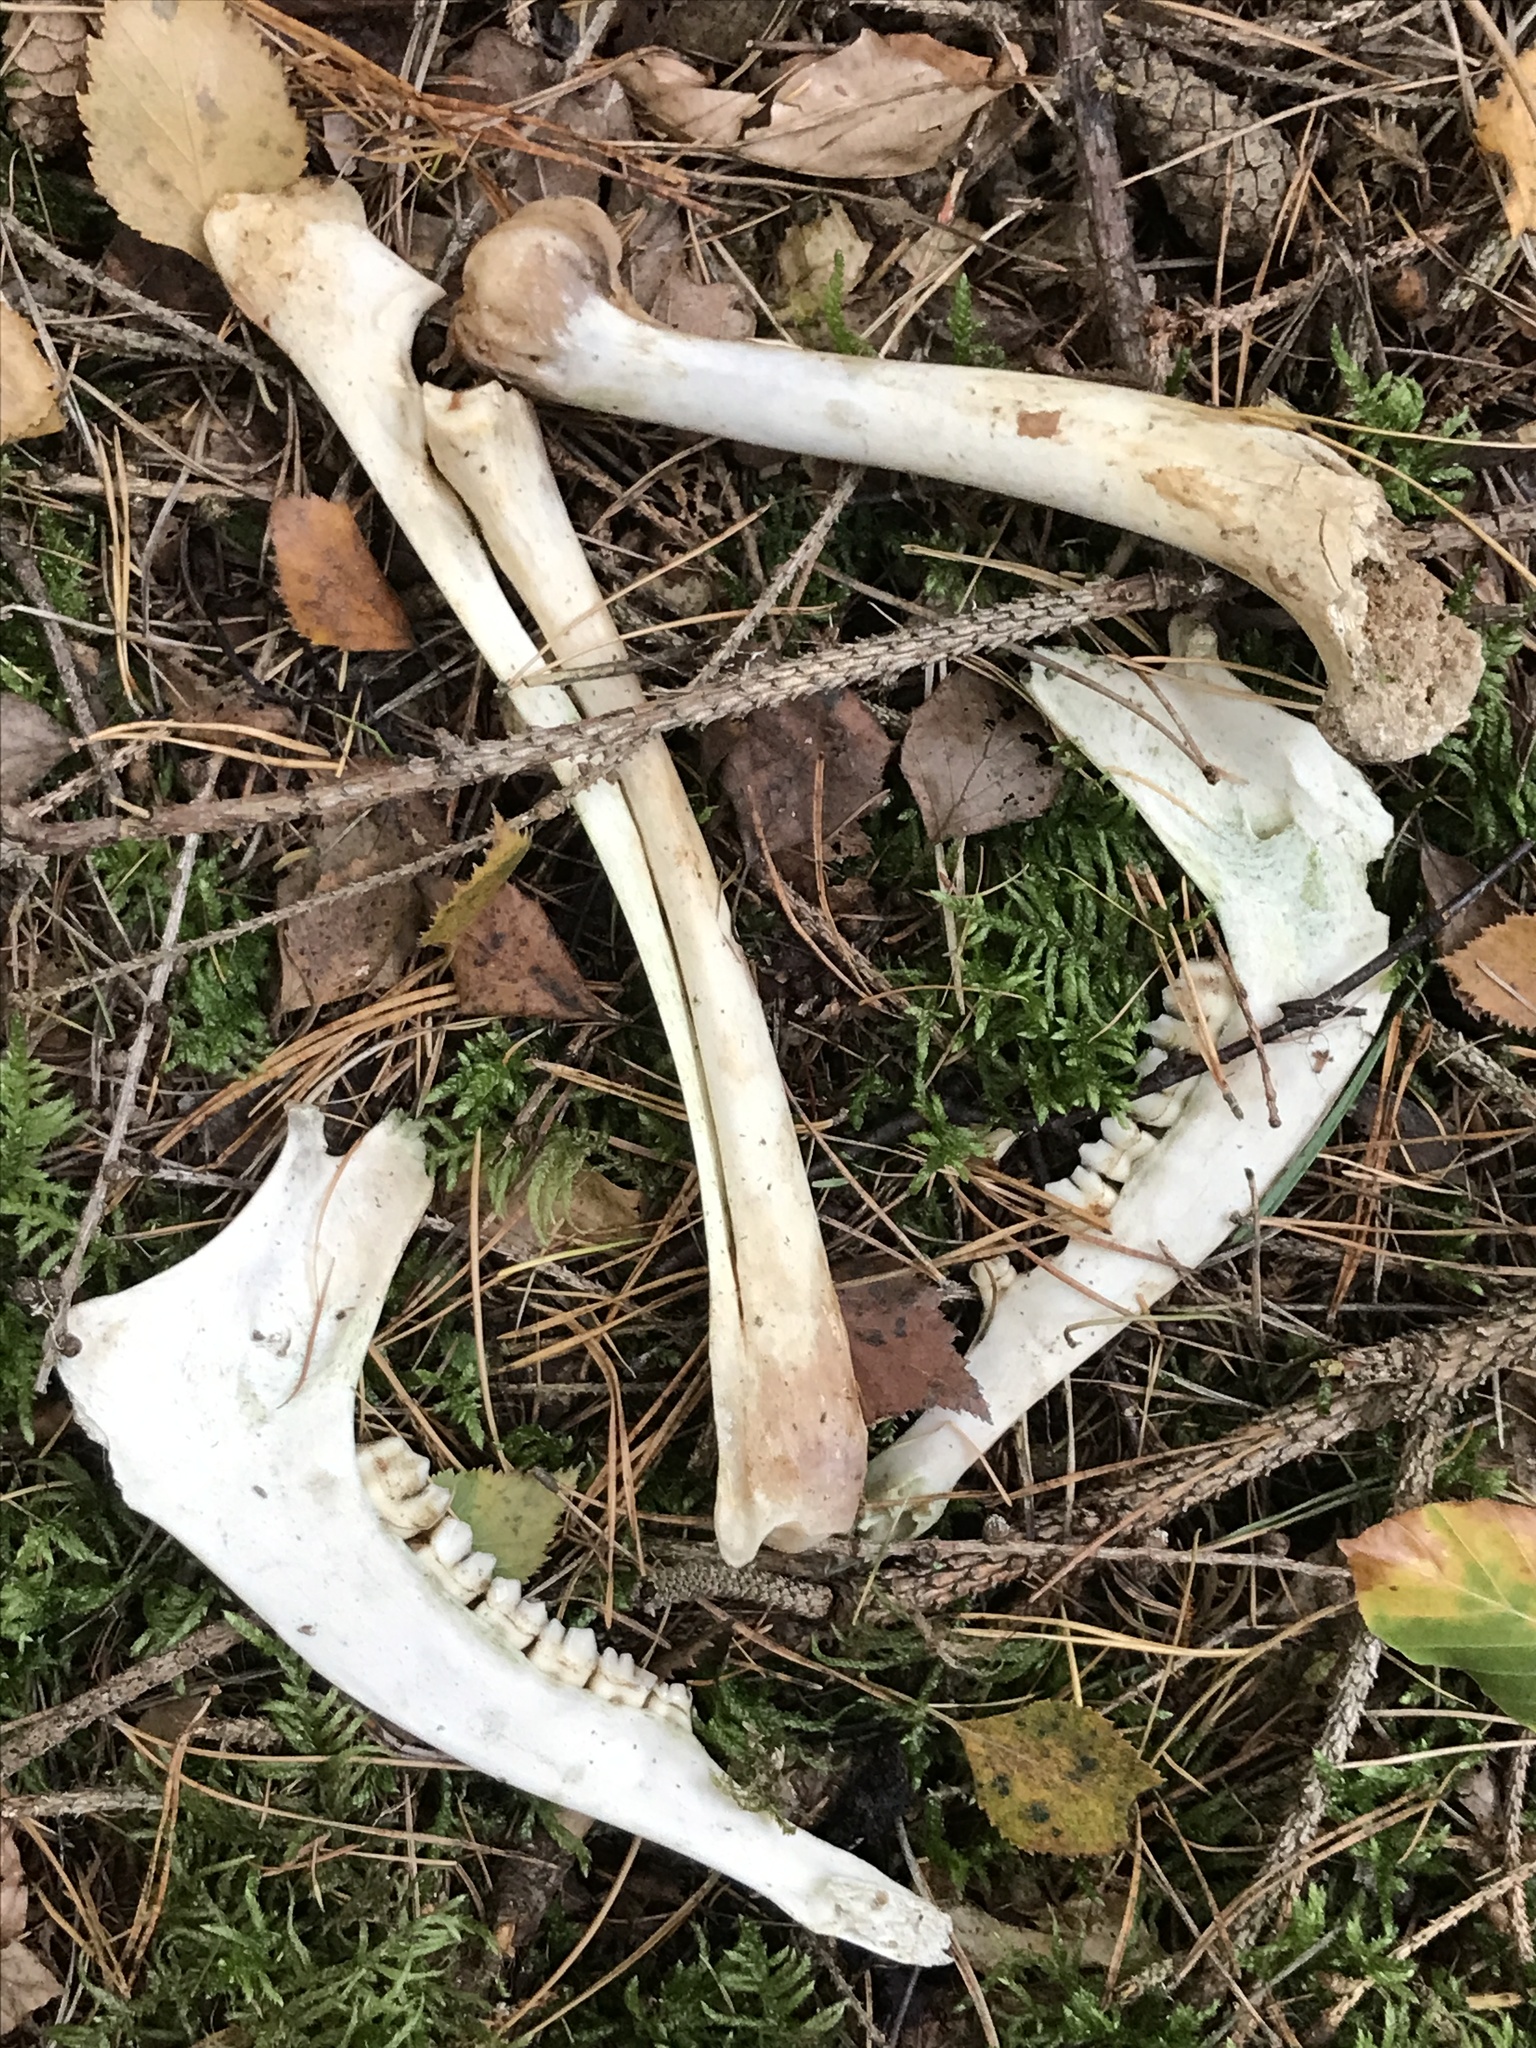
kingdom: Animalia
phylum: Chordata
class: Mammalia
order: Artiodactyla
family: Cervidae
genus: Capreolus
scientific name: Capreolus capreolus
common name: Western roe deer
